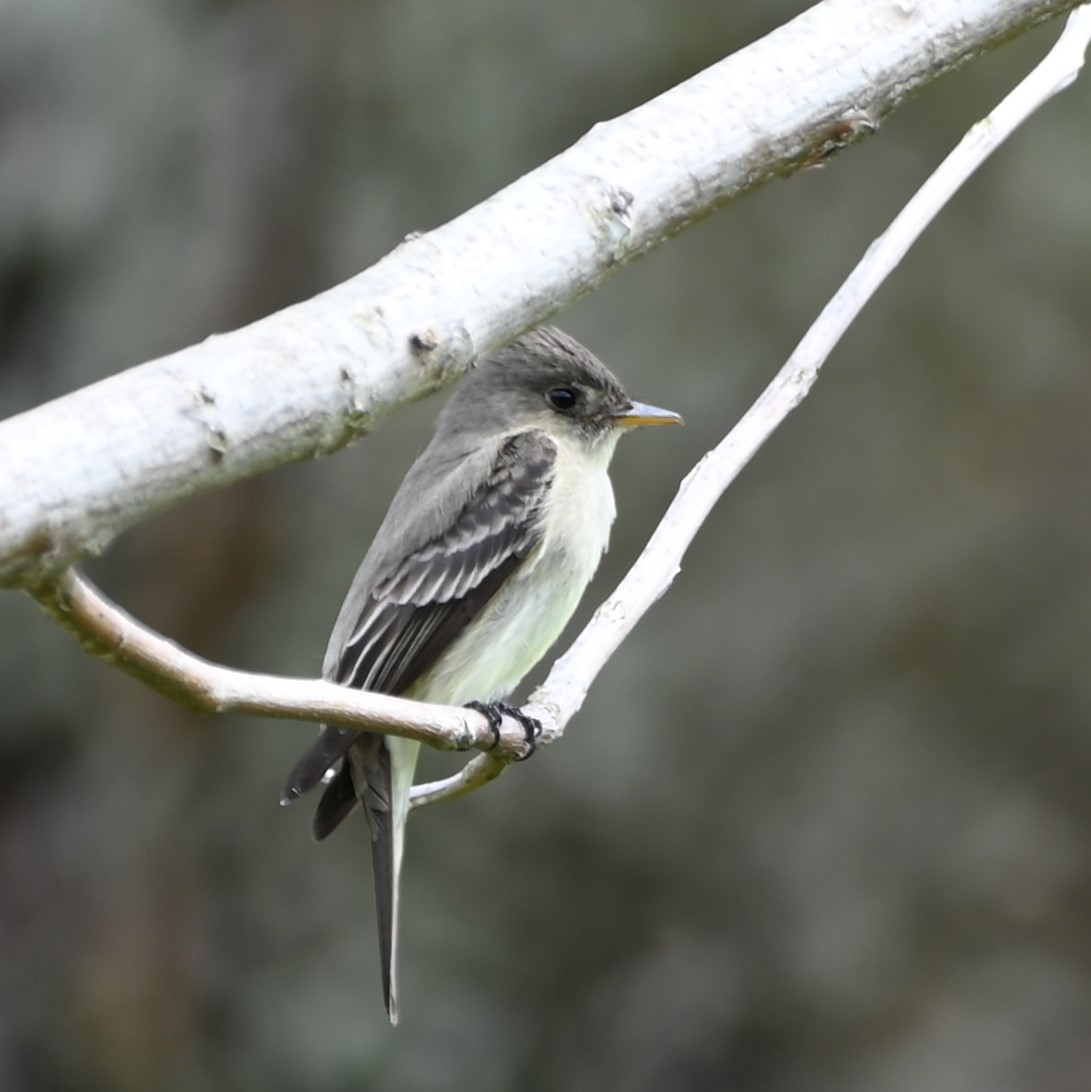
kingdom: Animalia
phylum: Chordata
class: Aves
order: Passeriformes
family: Tyrannidae
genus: Contopus
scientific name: Contopus virens
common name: Eastern wood-pewee
